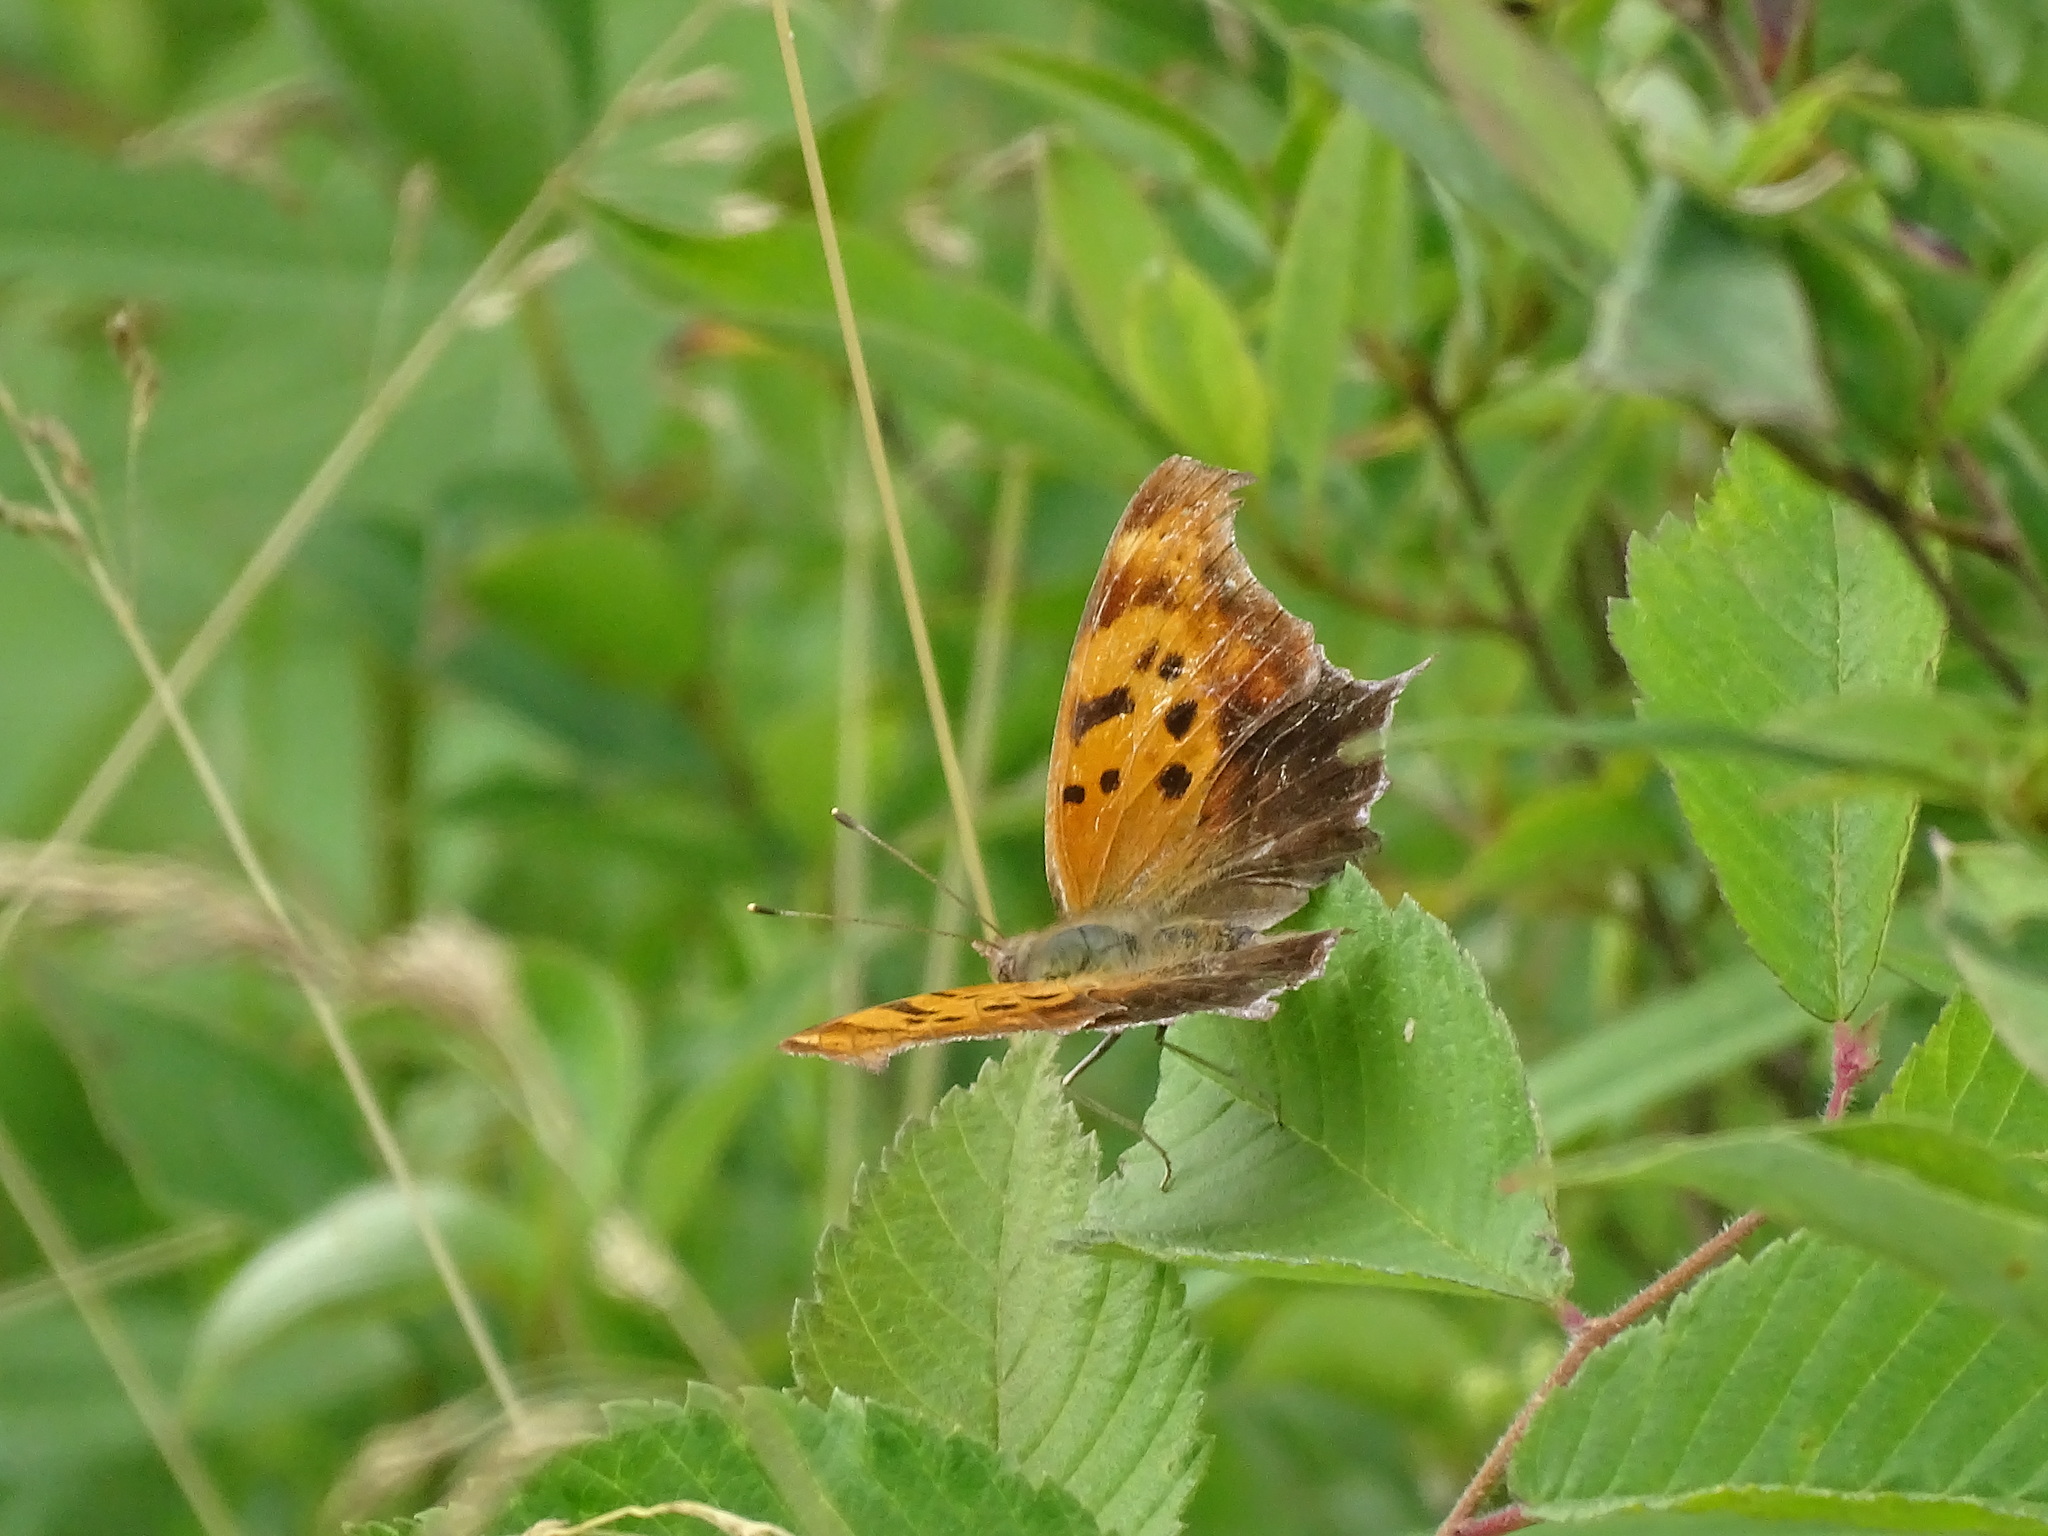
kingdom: Animalia
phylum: Arthropoda
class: Insecta
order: Lepidoptera
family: Nymphalidae
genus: Polygonia
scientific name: Polygonia interrogationis
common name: Question mark
